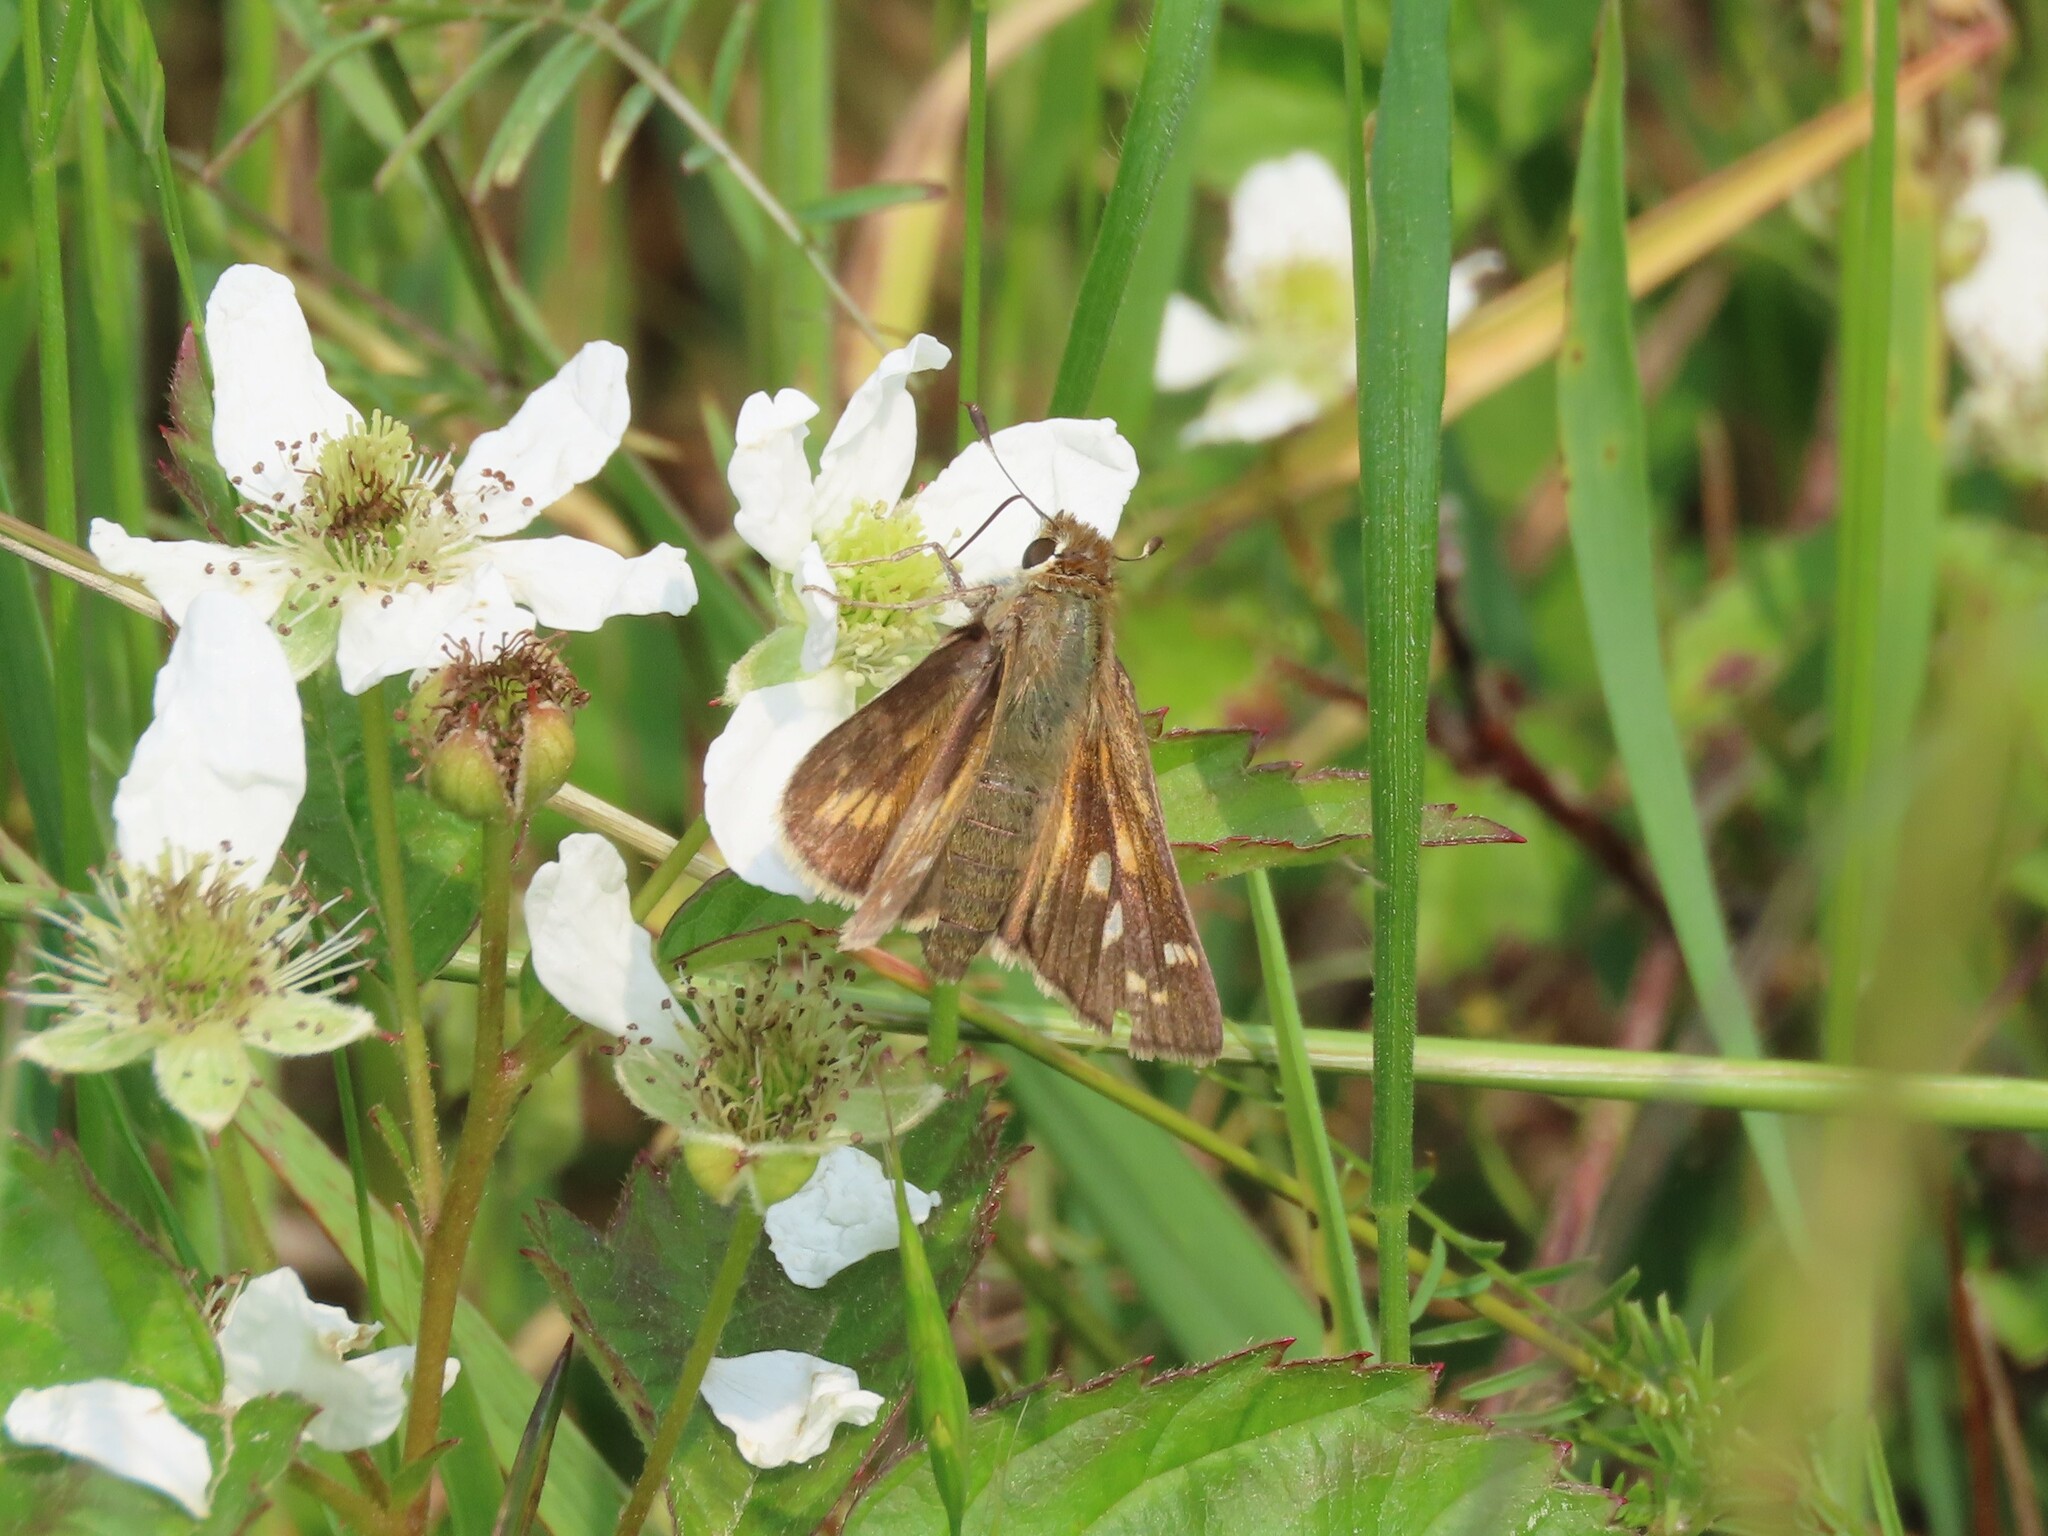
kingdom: Animalia
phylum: Arthropoda
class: Insecta
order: Lepidoptera
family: Hesperiidae
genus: Atalopedes
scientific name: Atalopedes
